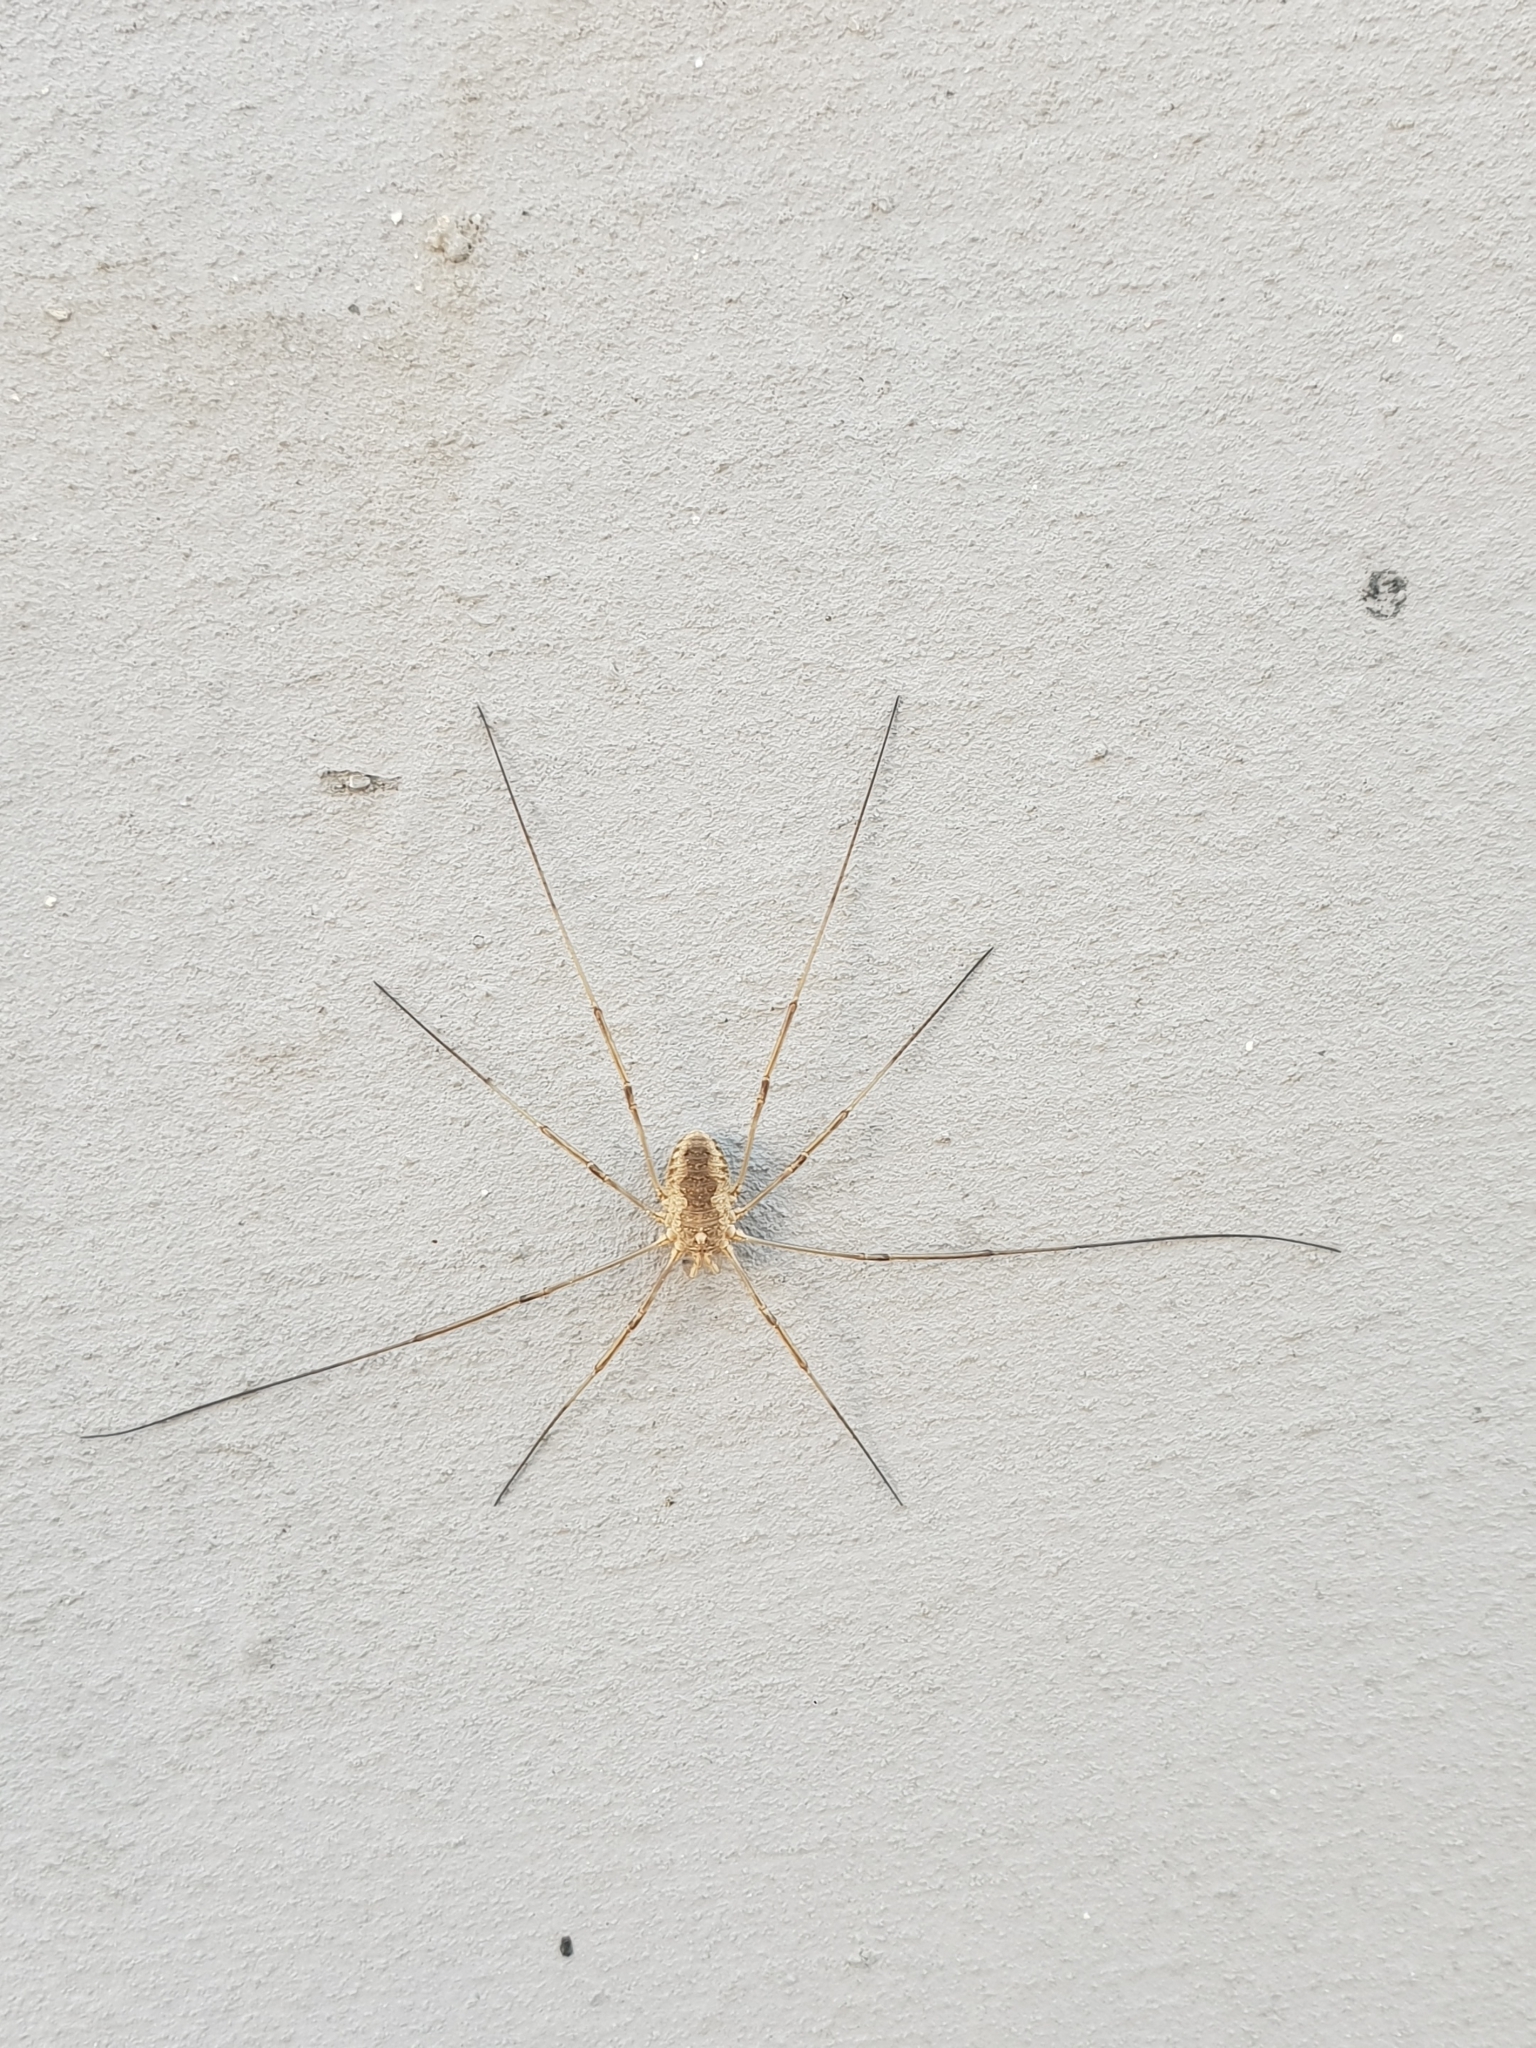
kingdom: Animalia
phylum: Arthropoda
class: Arachnida
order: Opiliones
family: Phalangiidae
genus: Phalangium
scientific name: Phalangium opilio
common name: Daddy longleg
